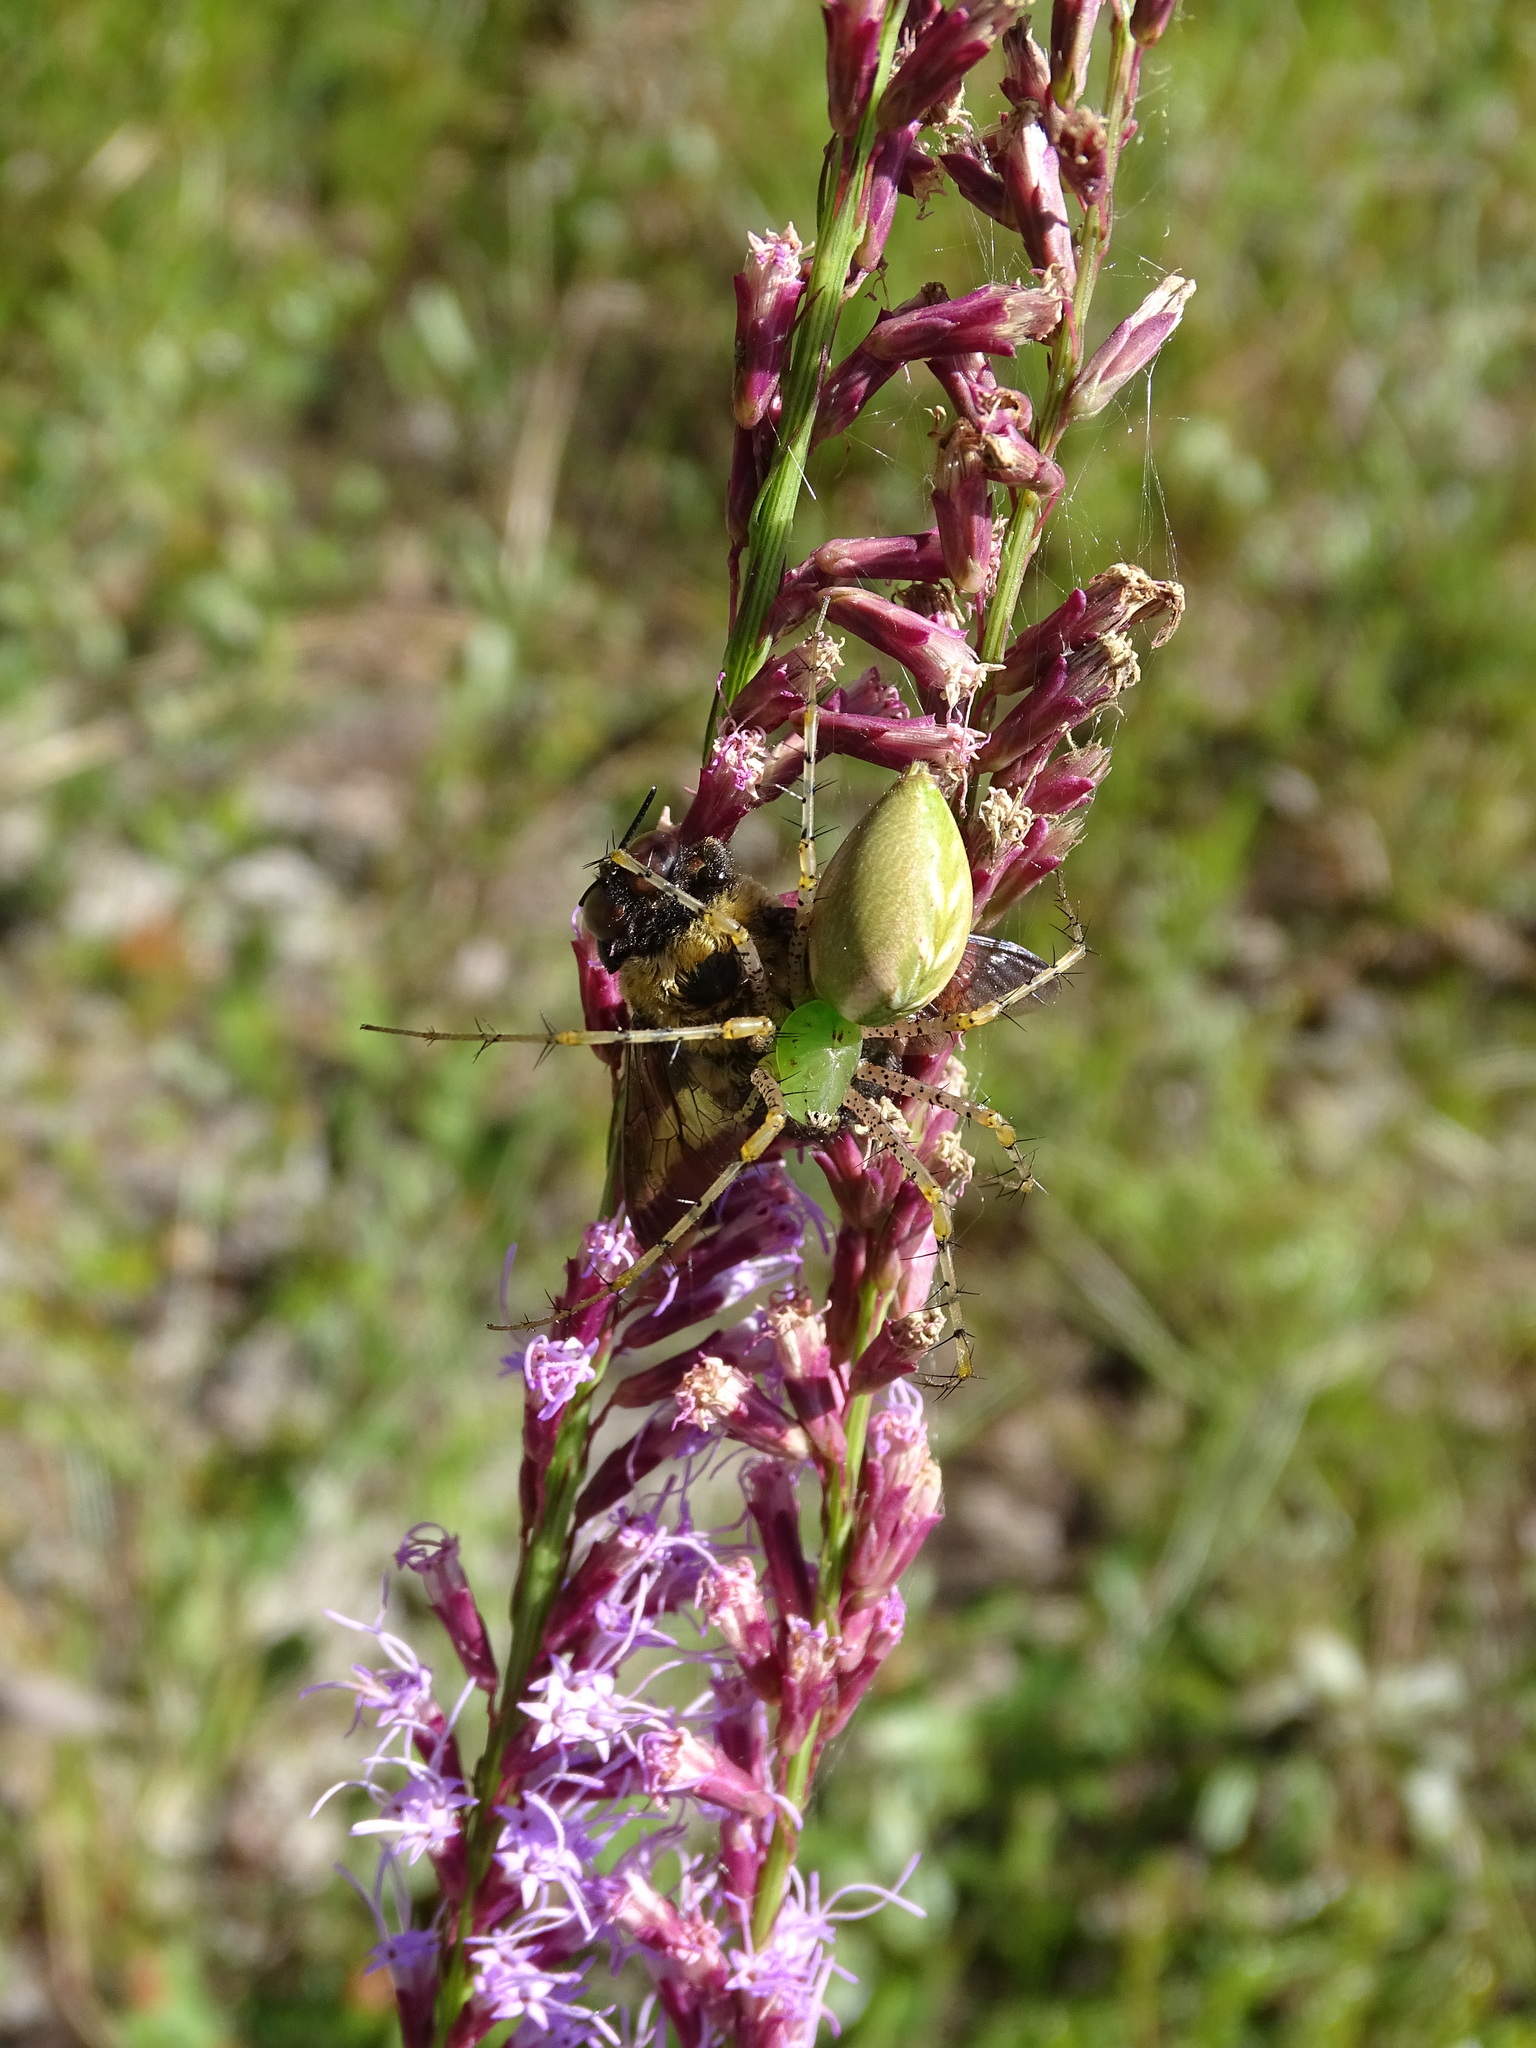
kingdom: Animalia
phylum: Arthropoda
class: Arachnida
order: Araneae
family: Oxyopidae
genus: Peucetia
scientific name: Peucetia viridans
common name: Lynx spiders
